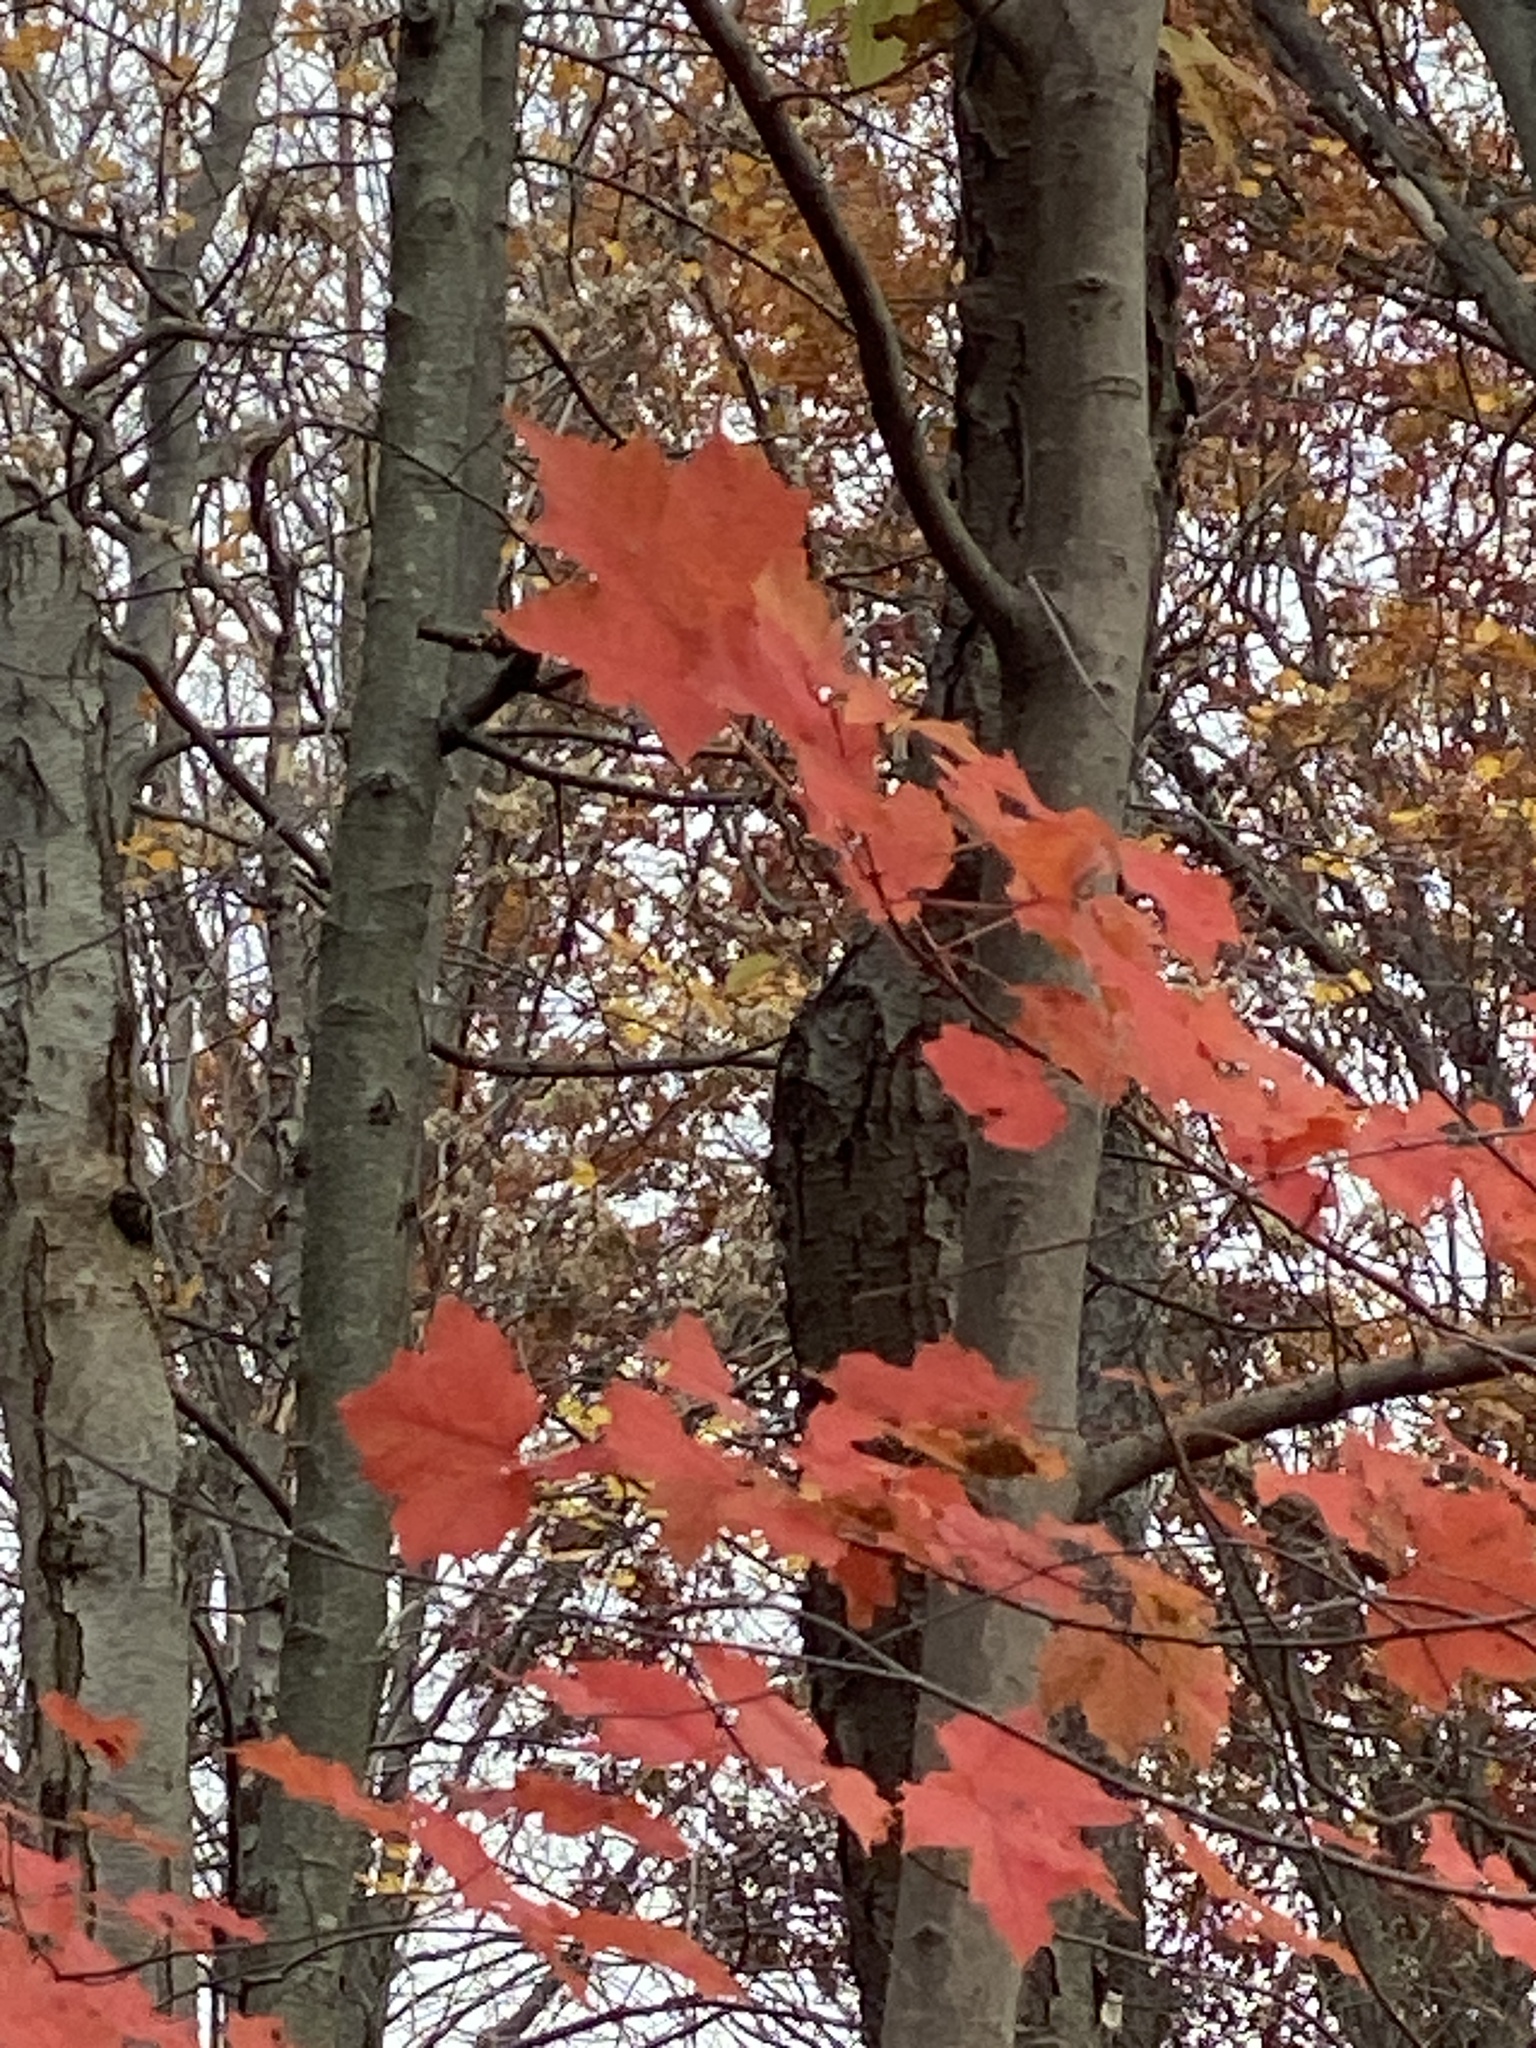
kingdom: Plantae
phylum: Tracheophyta
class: Magnoliopsida
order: Sapindales
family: Sapindaceae
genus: Acer
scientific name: Acer rubrum
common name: Red maple
